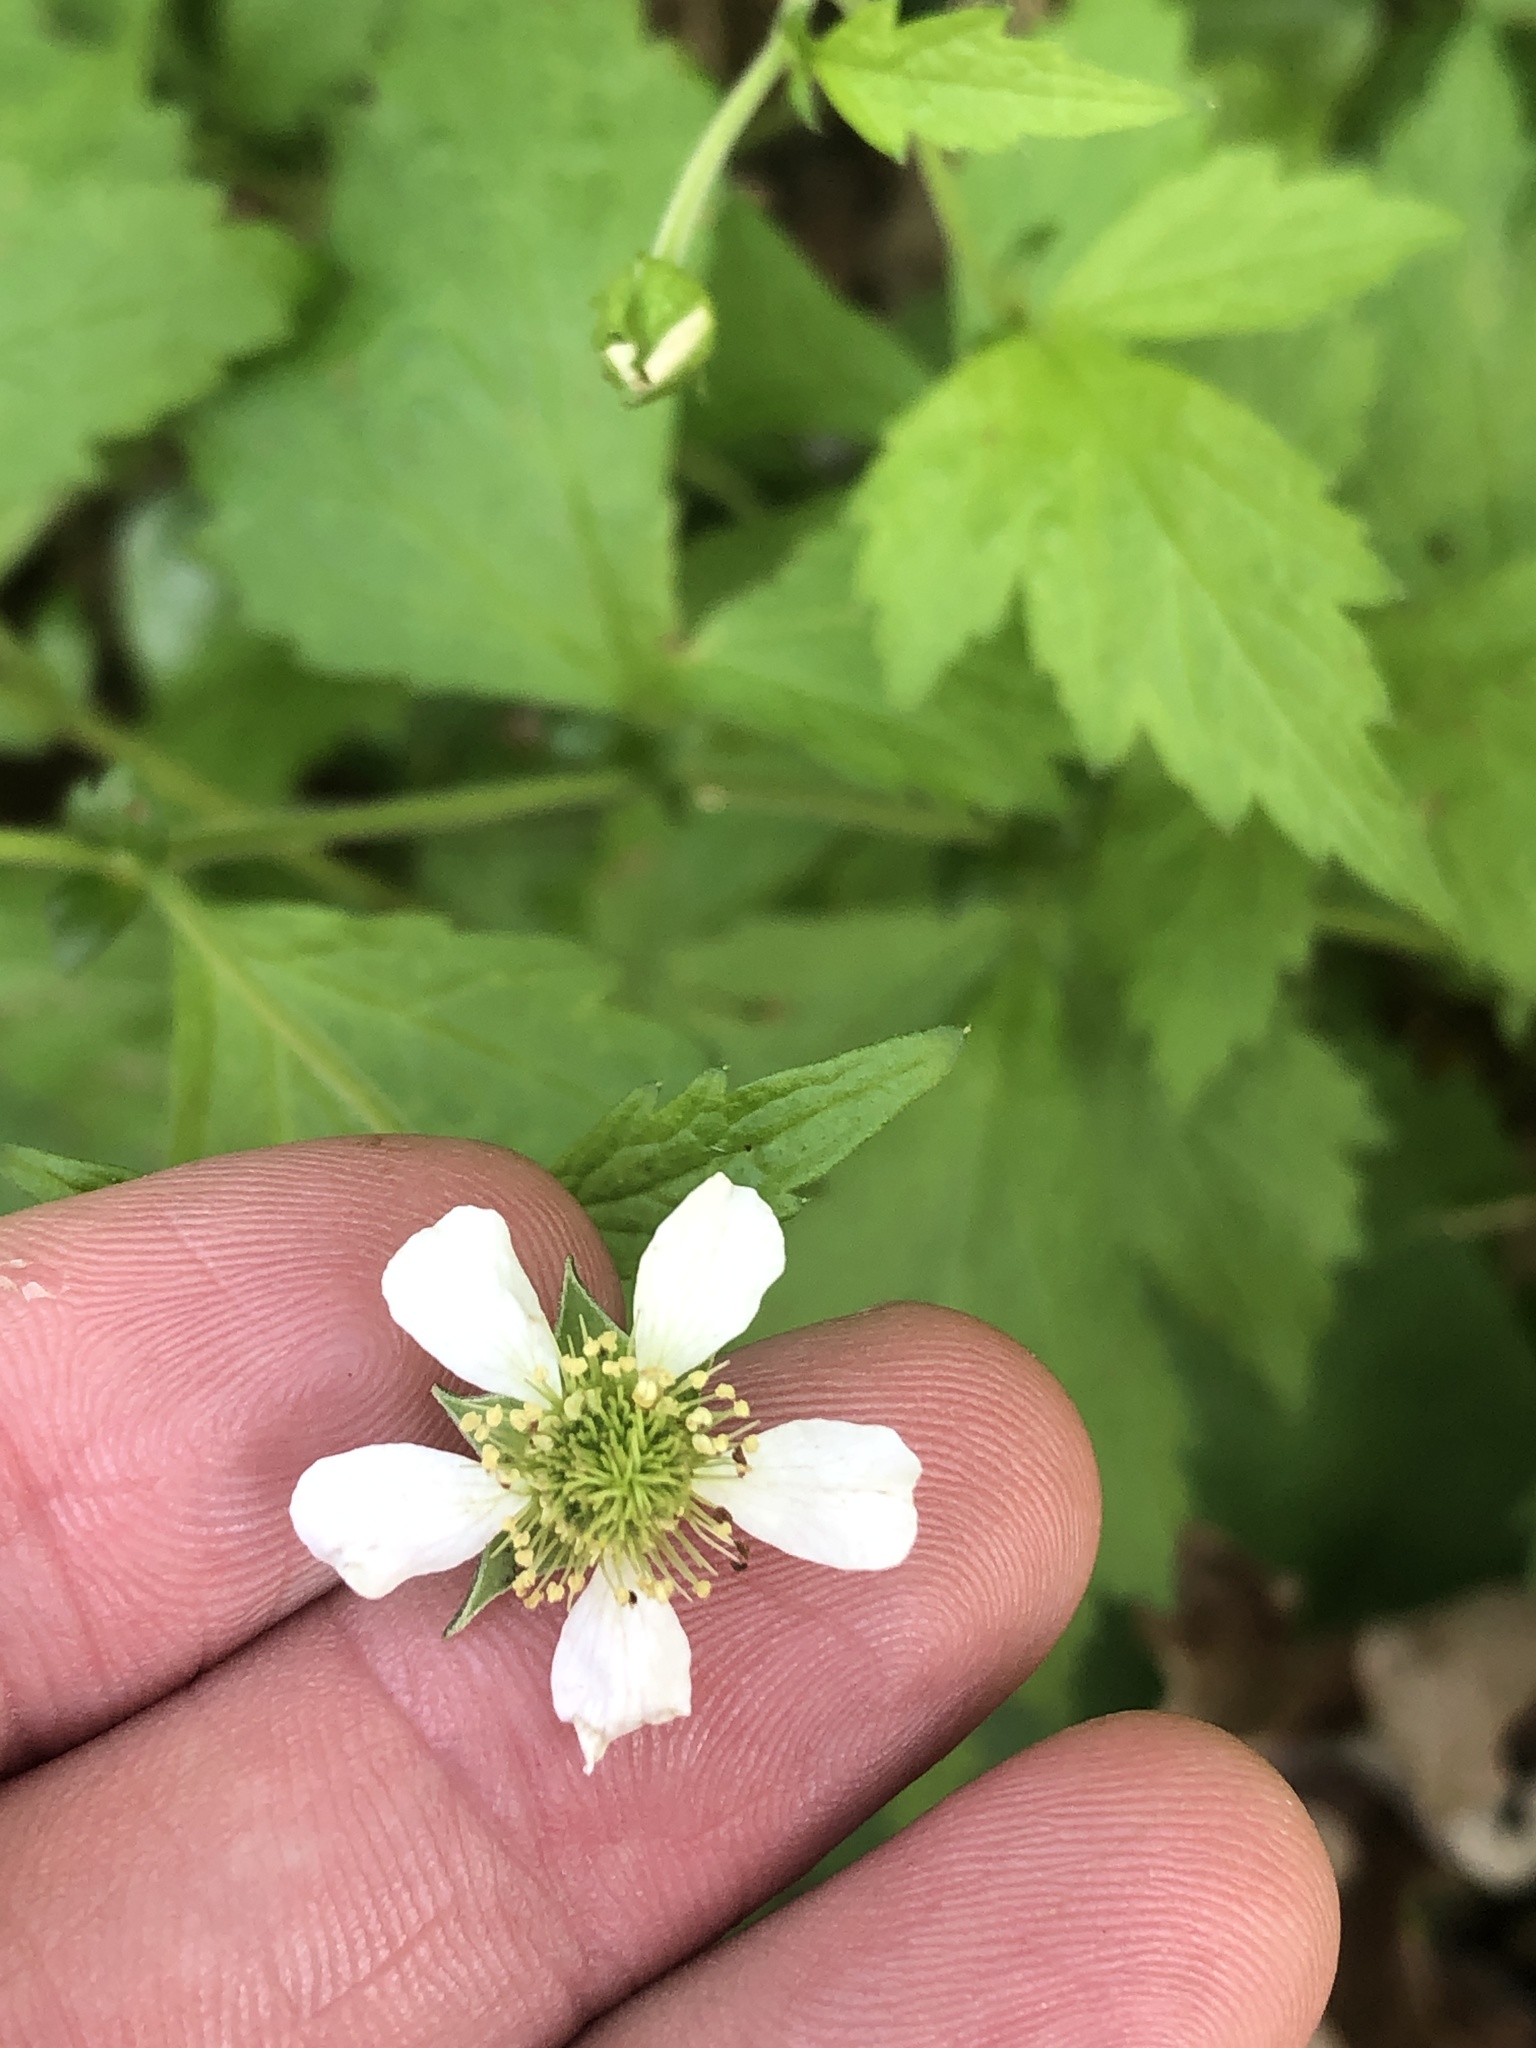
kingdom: Plantae
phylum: Tracheophyta
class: Magnoliopsida
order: Rosales
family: Rosaceae
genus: Geum
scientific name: Geum canadense
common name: White avens
